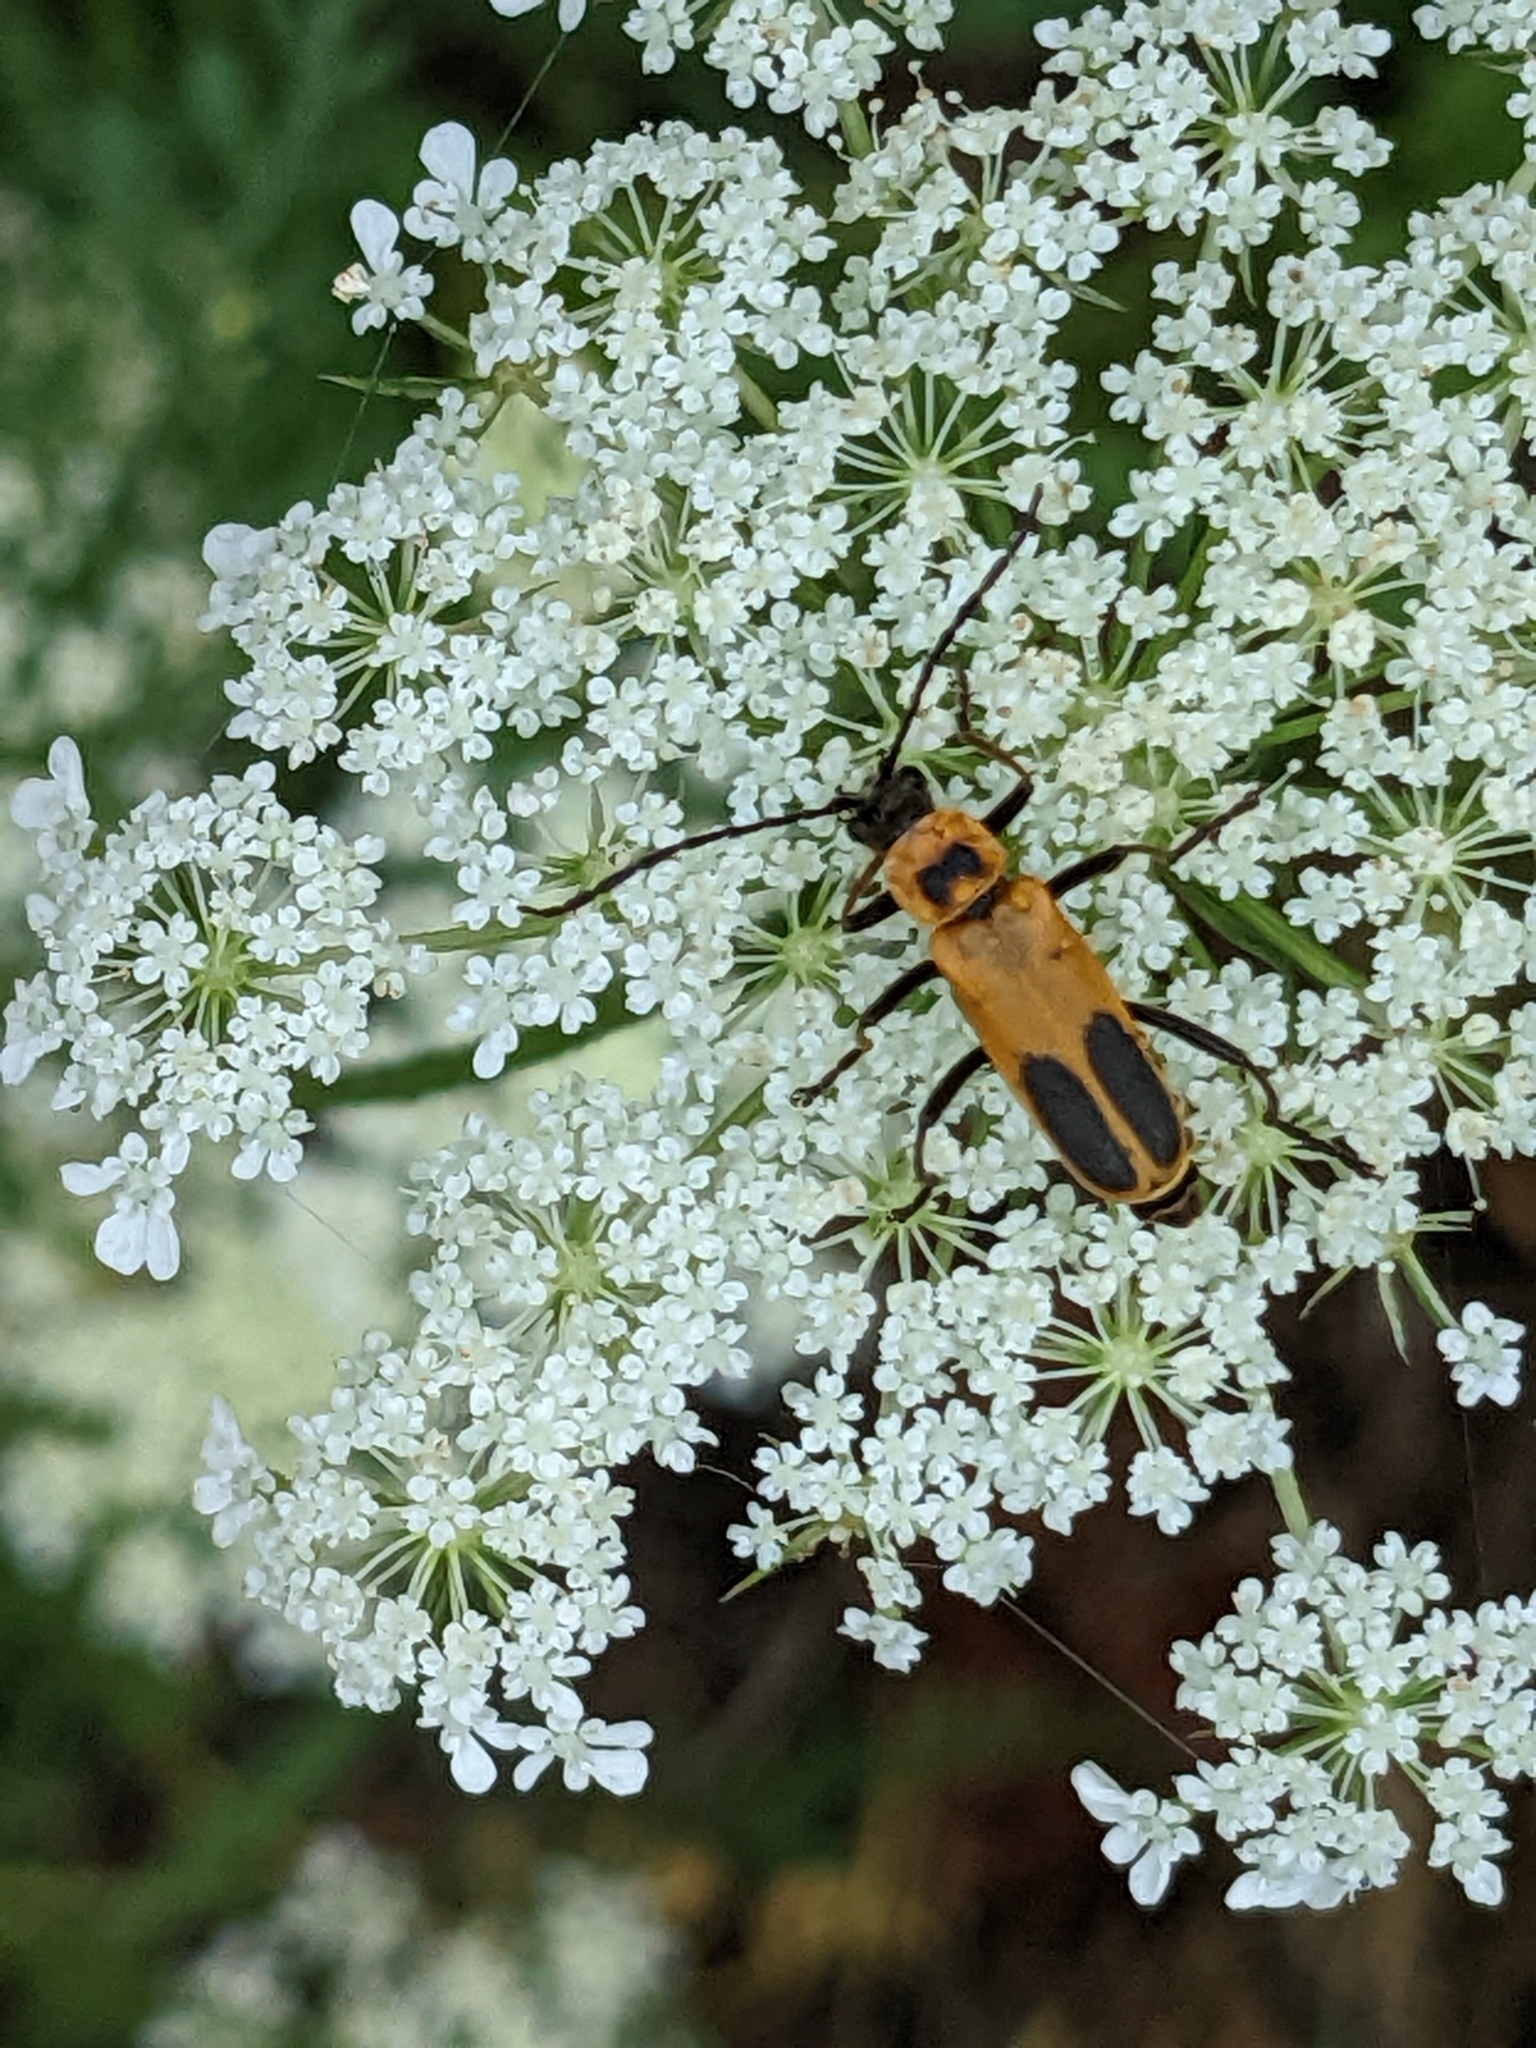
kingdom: Animalia
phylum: Arthropoda
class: Insecta
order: Coleoptera
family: Cantharidae
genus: Chauliognathus
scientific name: Chauliognathus pensylvanicus
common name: Goldenrod soldier beetle
